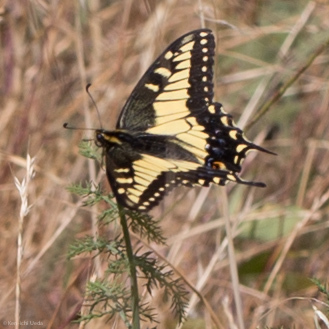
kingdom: Animalia
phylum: Arthropoda
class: Insecta
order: Lepidoptera
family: Papilionidae
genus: Papilio
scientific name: Papilio zelicaon
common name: Anise swallowtail
